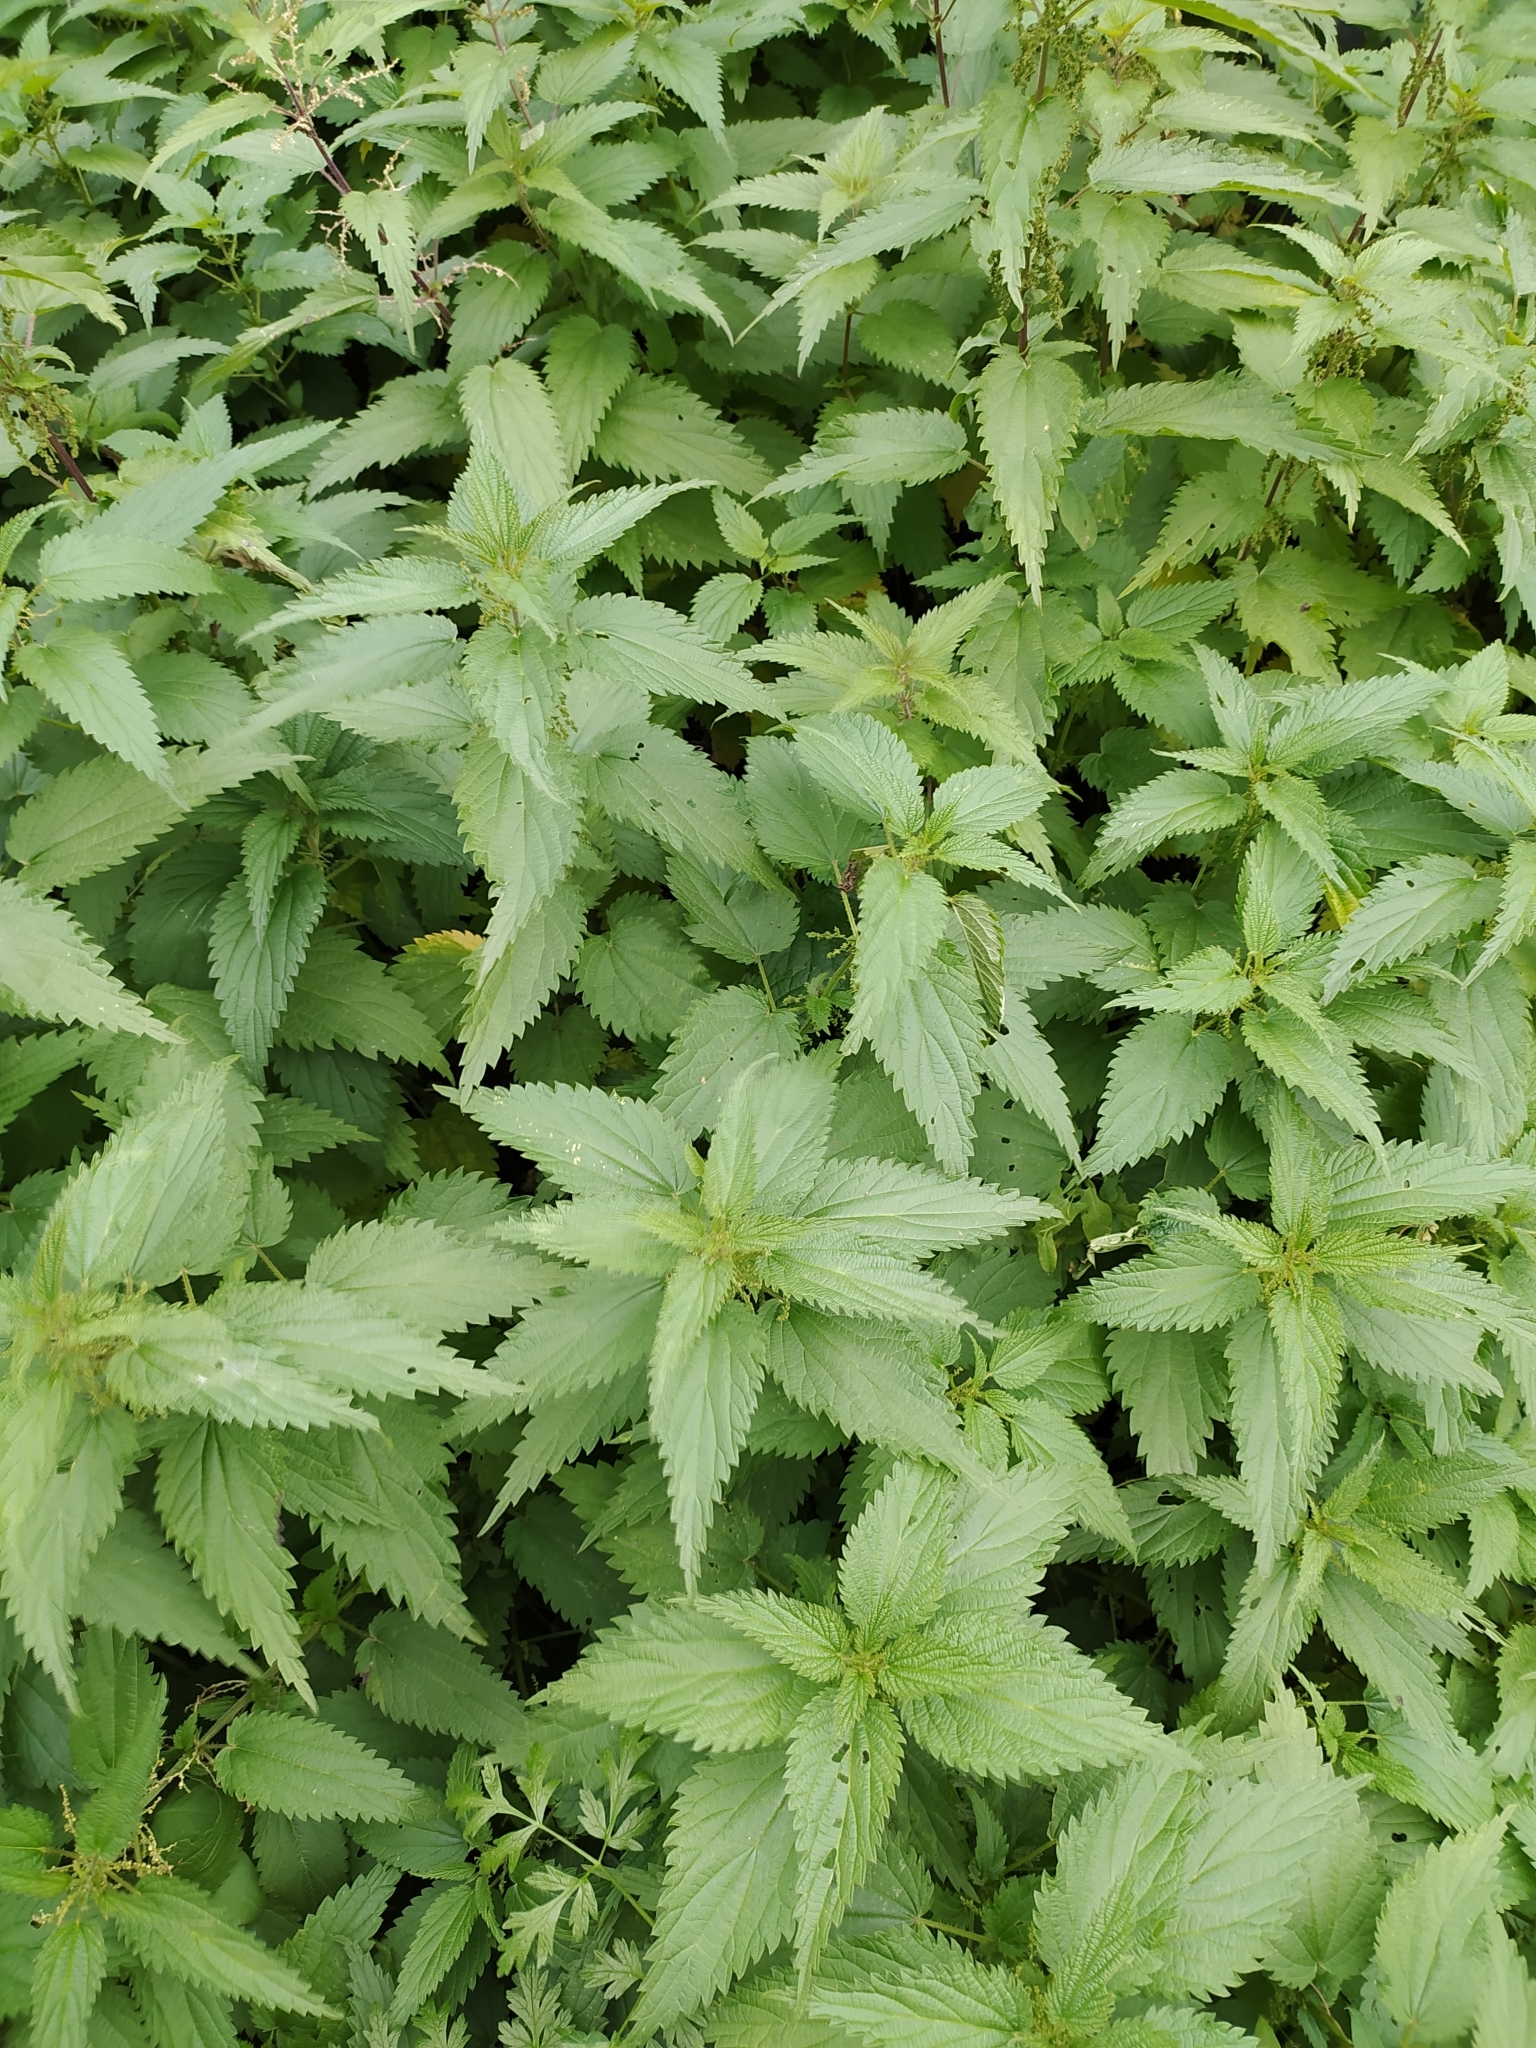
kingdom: Plantae
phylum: Tracheophyta
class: Magnoliopsida
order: Rosales
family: Urticaceae
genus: Urtica
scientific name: Urtica dioica
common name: Common nettle
